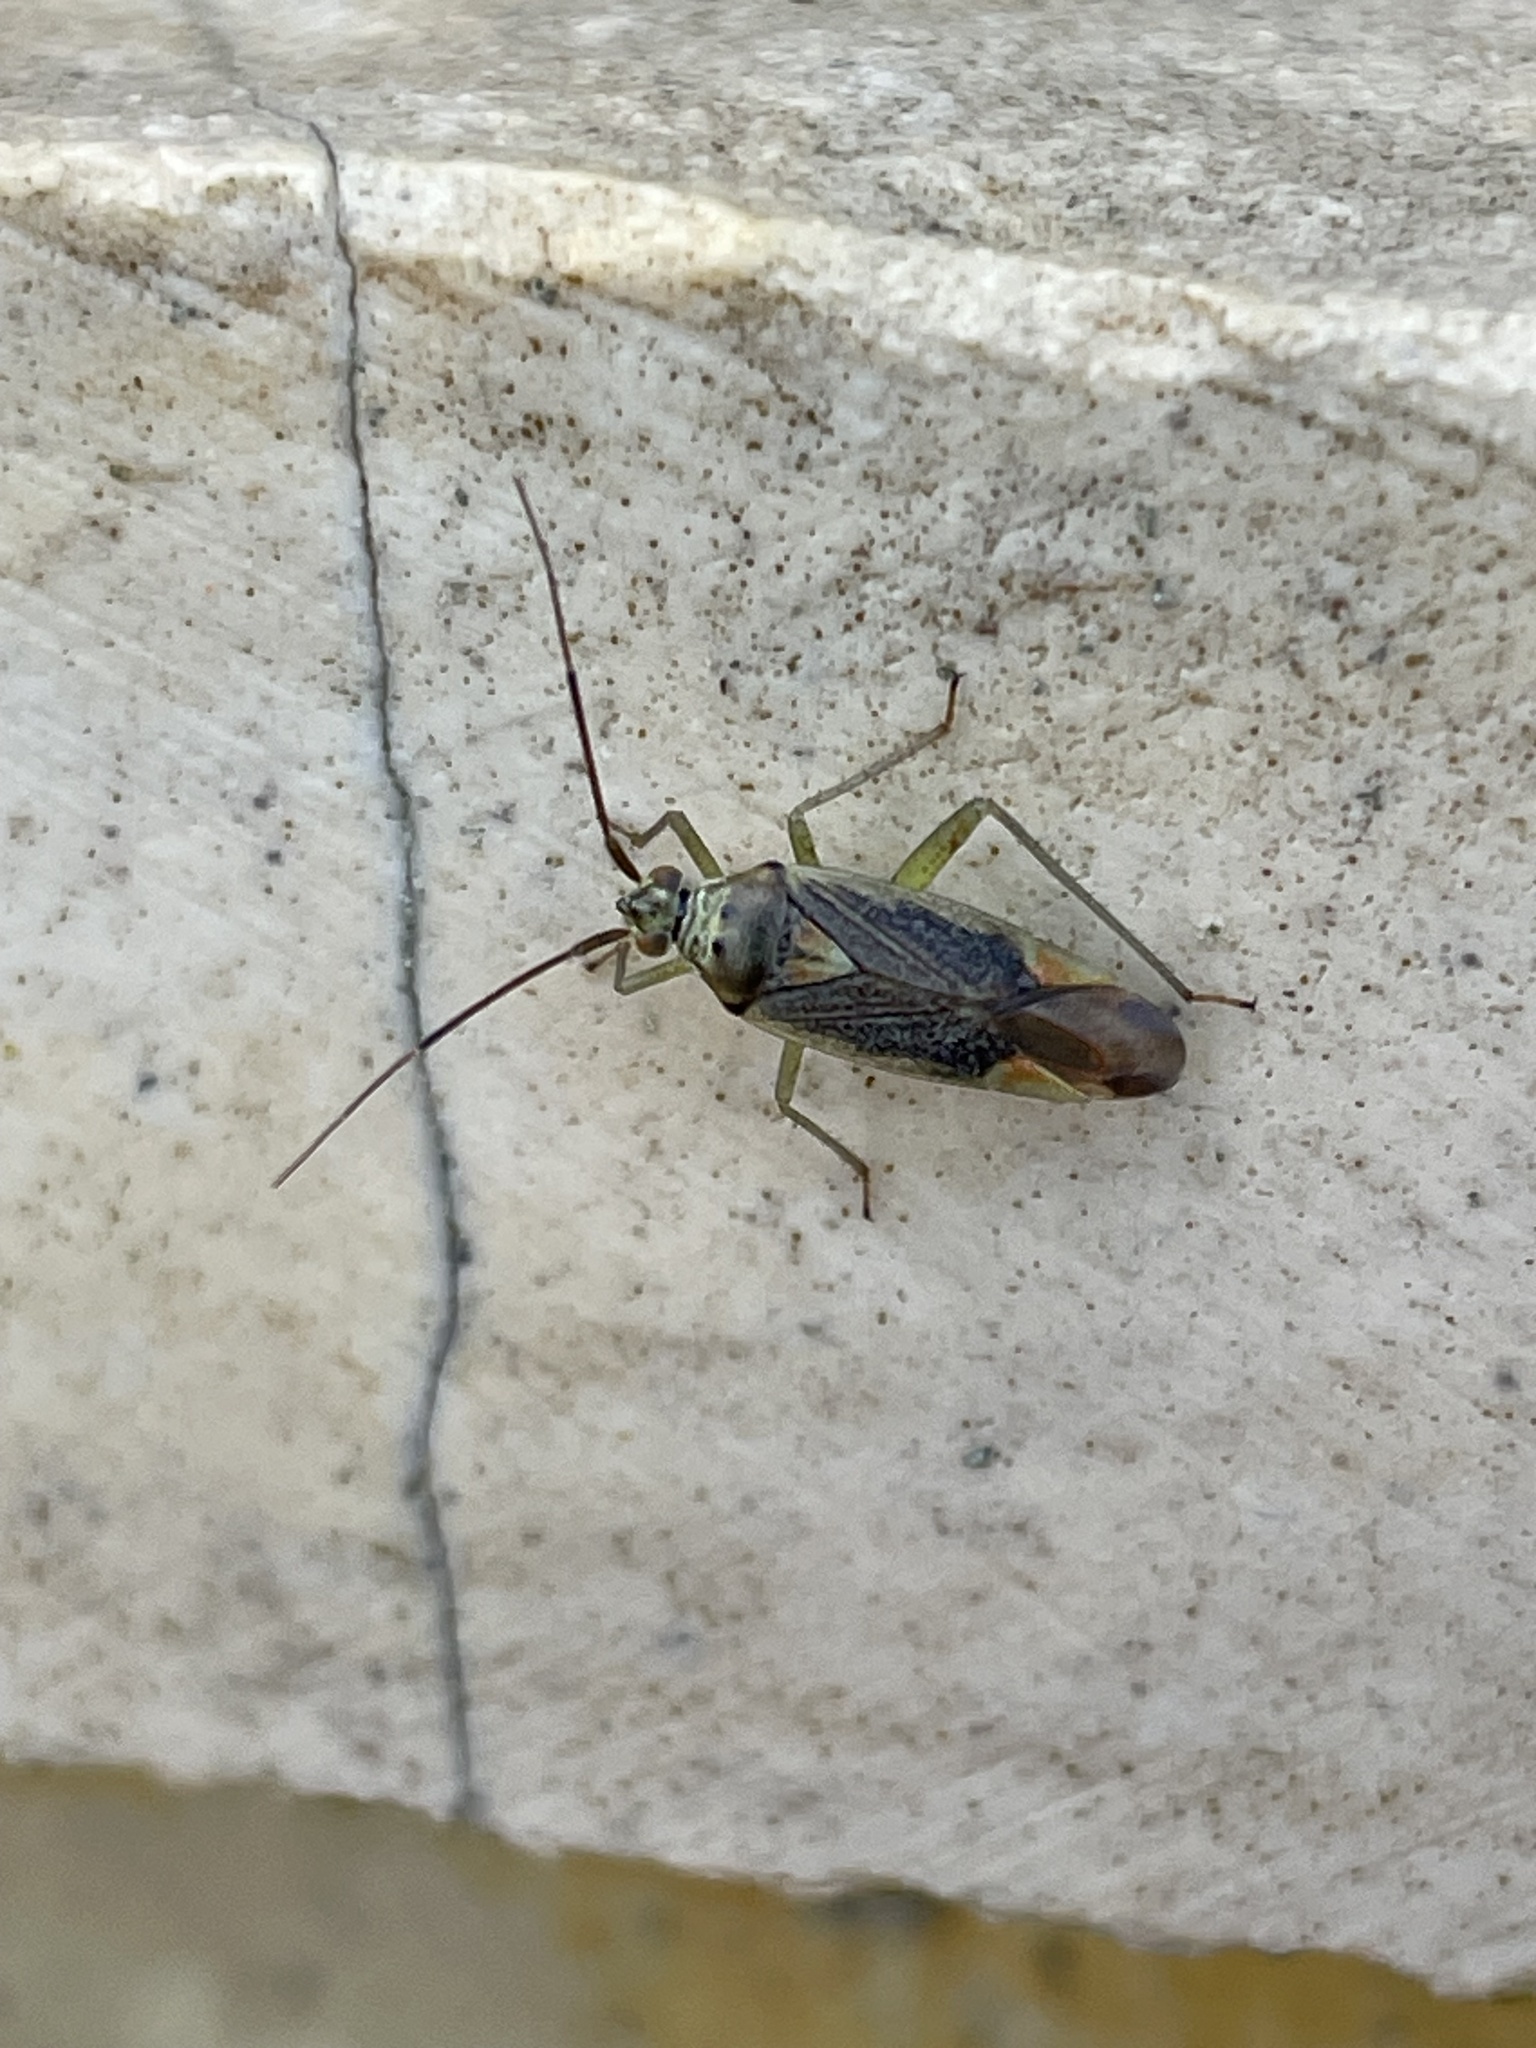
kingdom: Animalia
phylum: Arthropoda
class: Insecta
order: Hemiptera
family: Miridae
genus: Closterotomus
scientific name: Closterotomus trivialis
